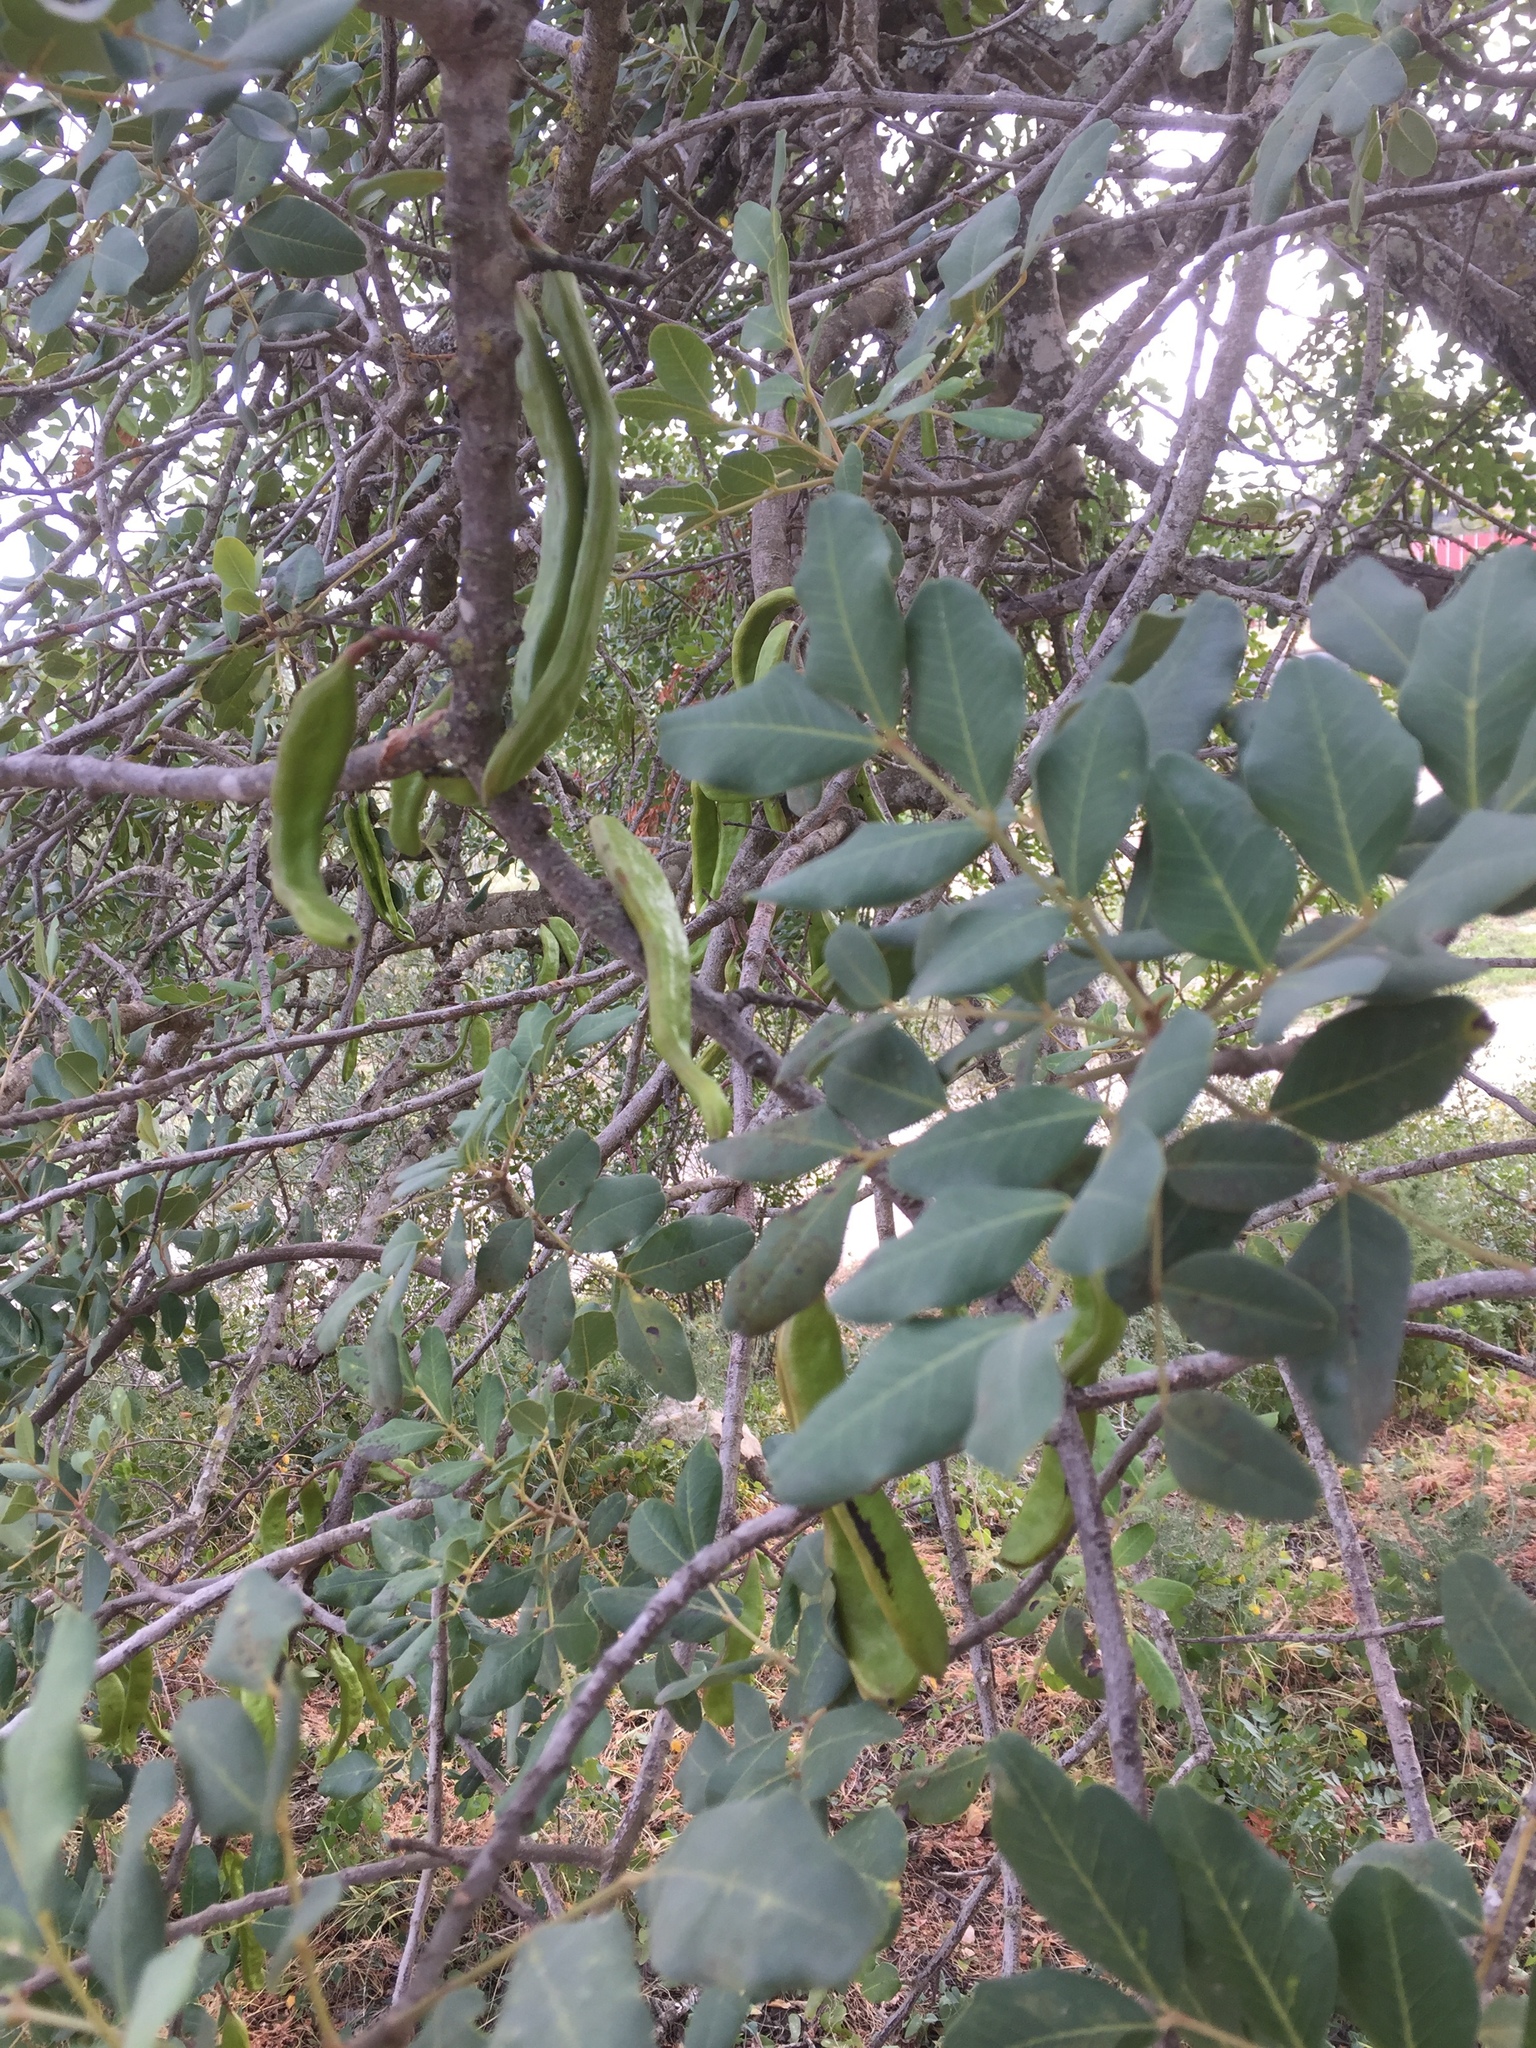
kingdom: Animalia
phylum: Arthropoda
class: Insecta
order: Lepidoptera
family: Pyralidae
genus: Ectomyelois
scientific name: Ectomyelois ceratoniae
